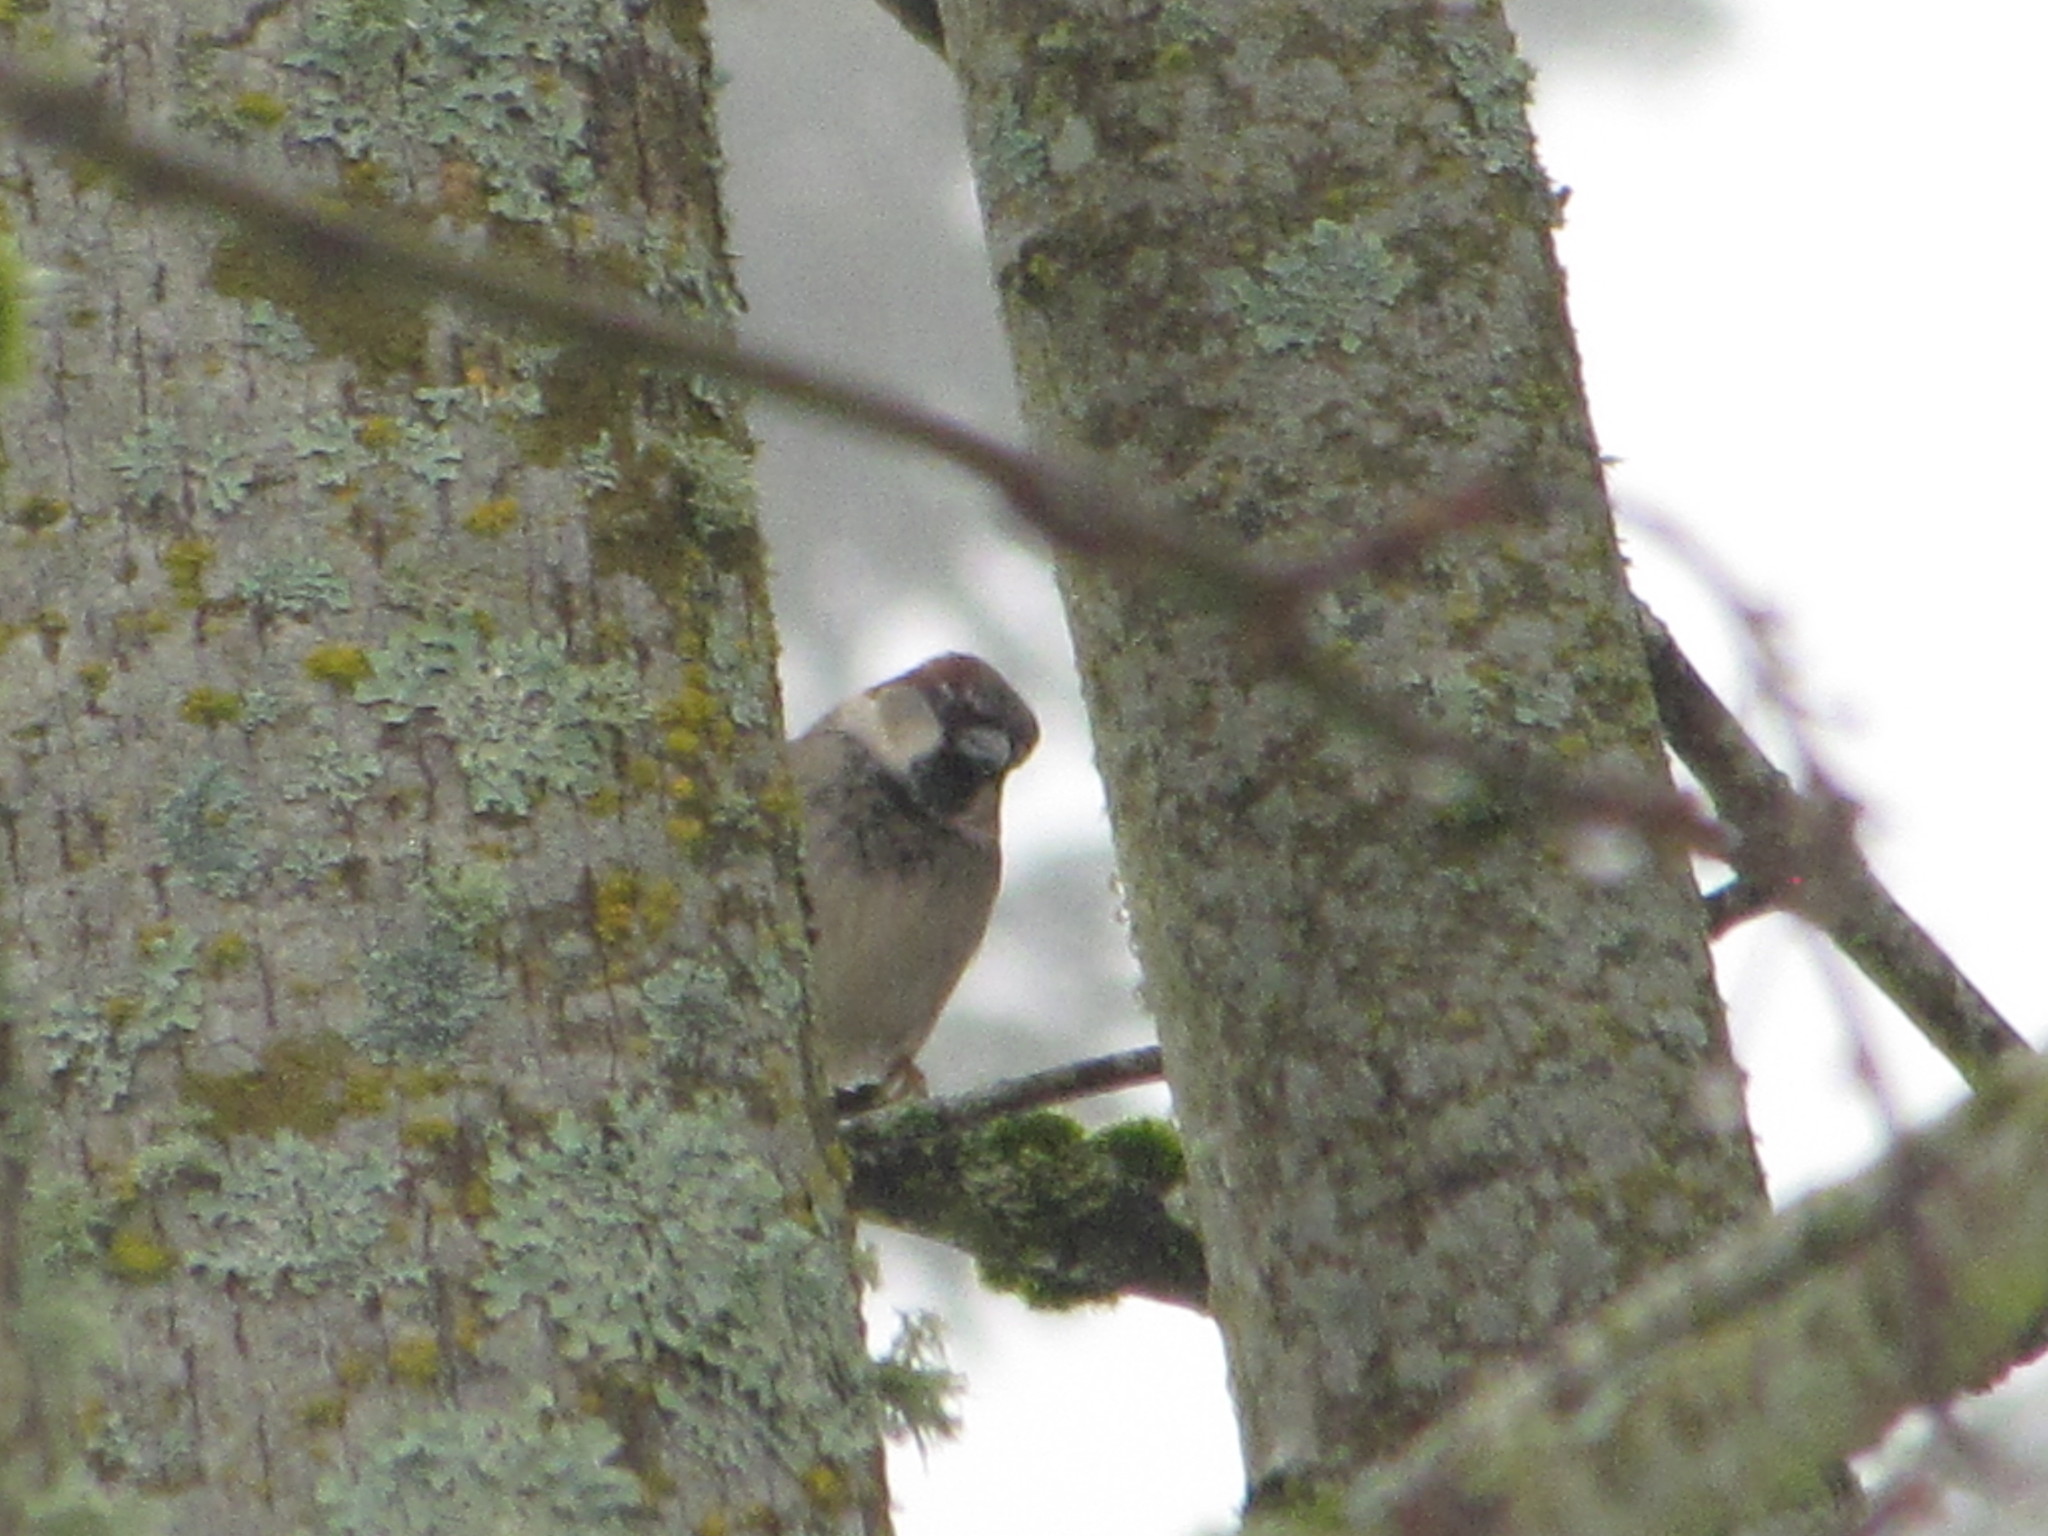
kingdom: Animalia
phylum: Chordata
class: Aves
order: Passeriformes
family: Passeridae
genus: Passer
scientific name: Passer domesticus
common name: House sparrow
